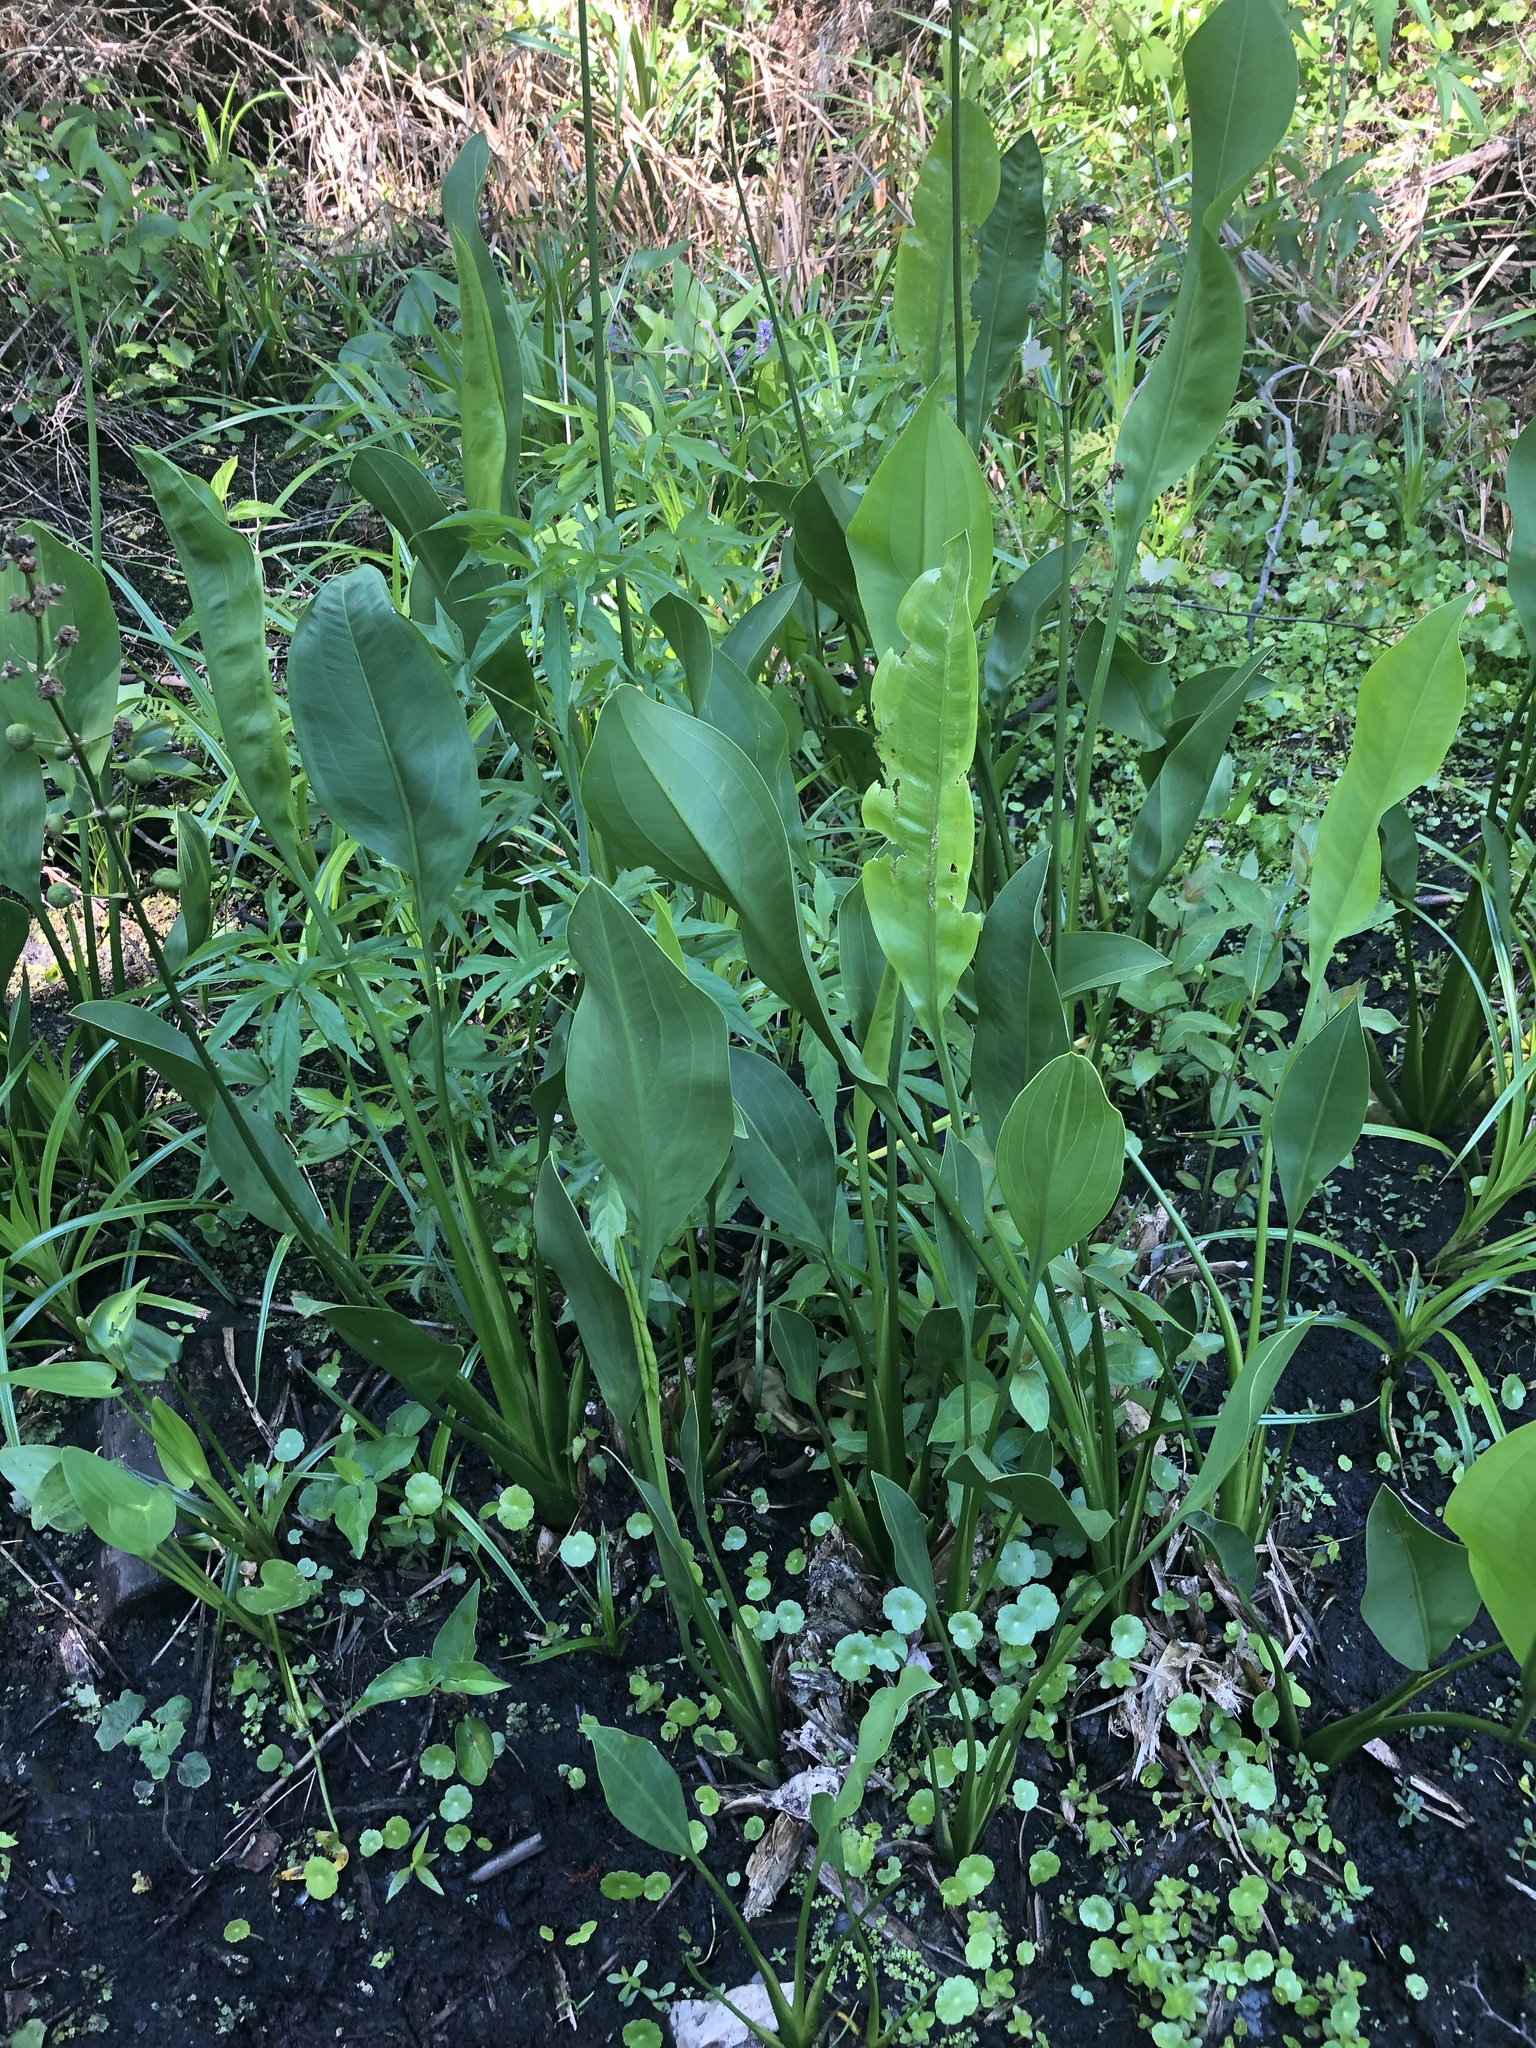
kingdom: Plantae
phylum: Tracheophyta
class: Liliopsida
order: Alismatales
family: Alismataceae
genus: Sagittaria
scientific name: Sagittaria lancifolia
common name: Lance-leaf arrowhead
